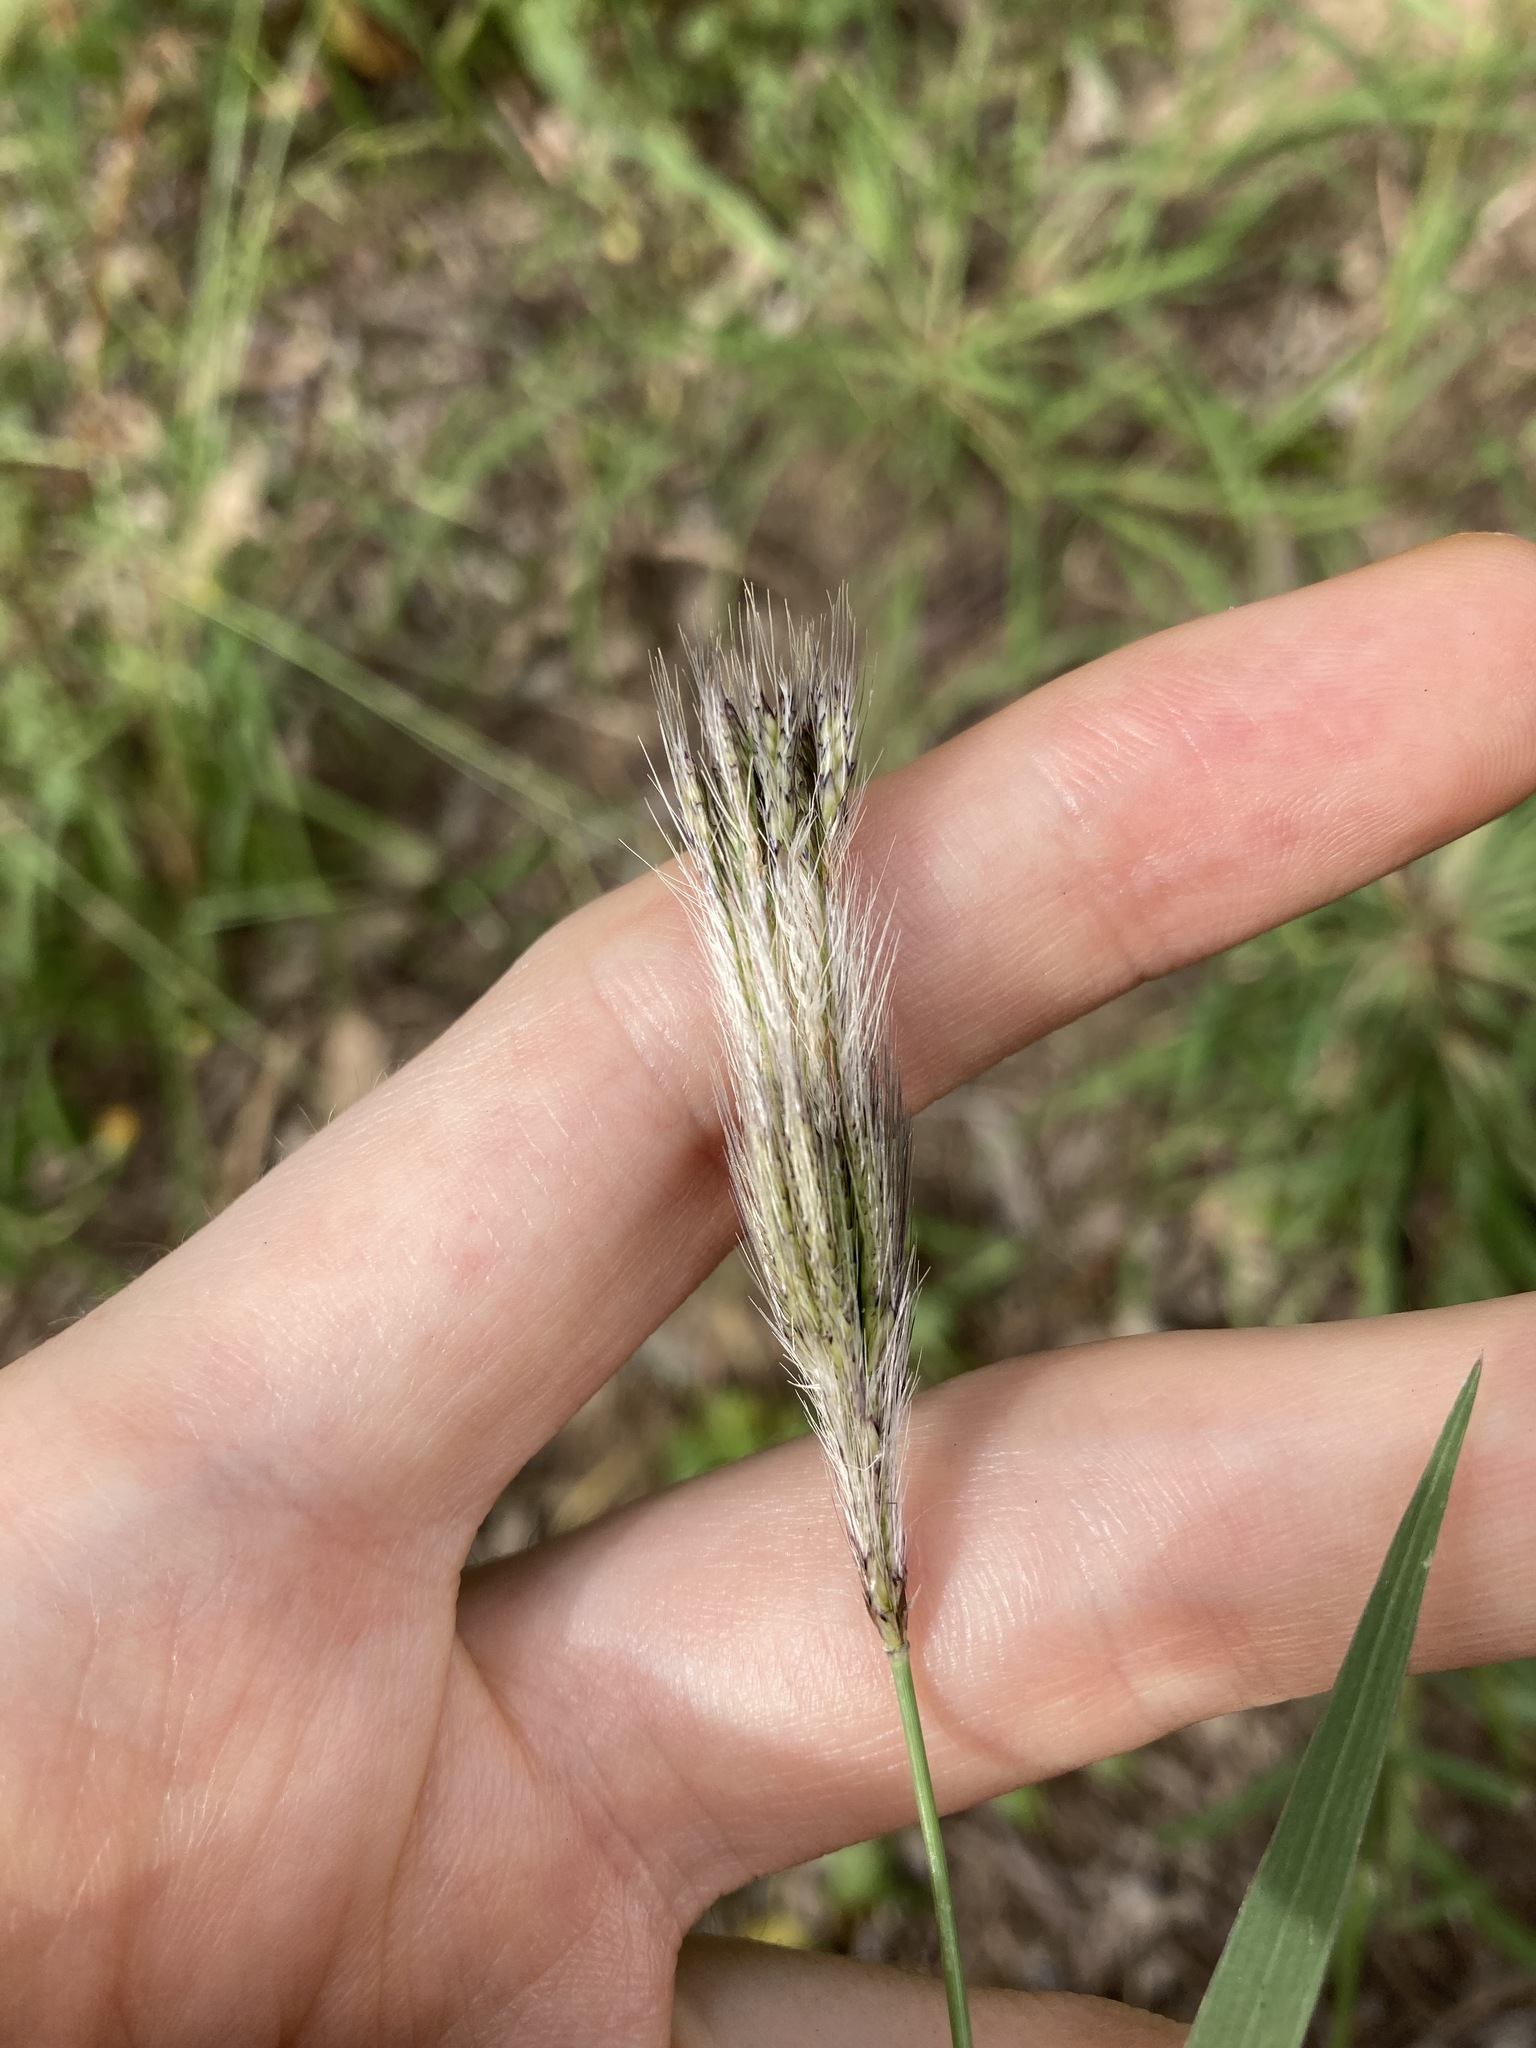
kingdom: Plantae
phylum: Tracheophyta
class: Liliopsida
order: Poales
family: Poaceae
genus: Chloris
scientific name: Chloris virgata
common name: Feathery rhodes-grass
